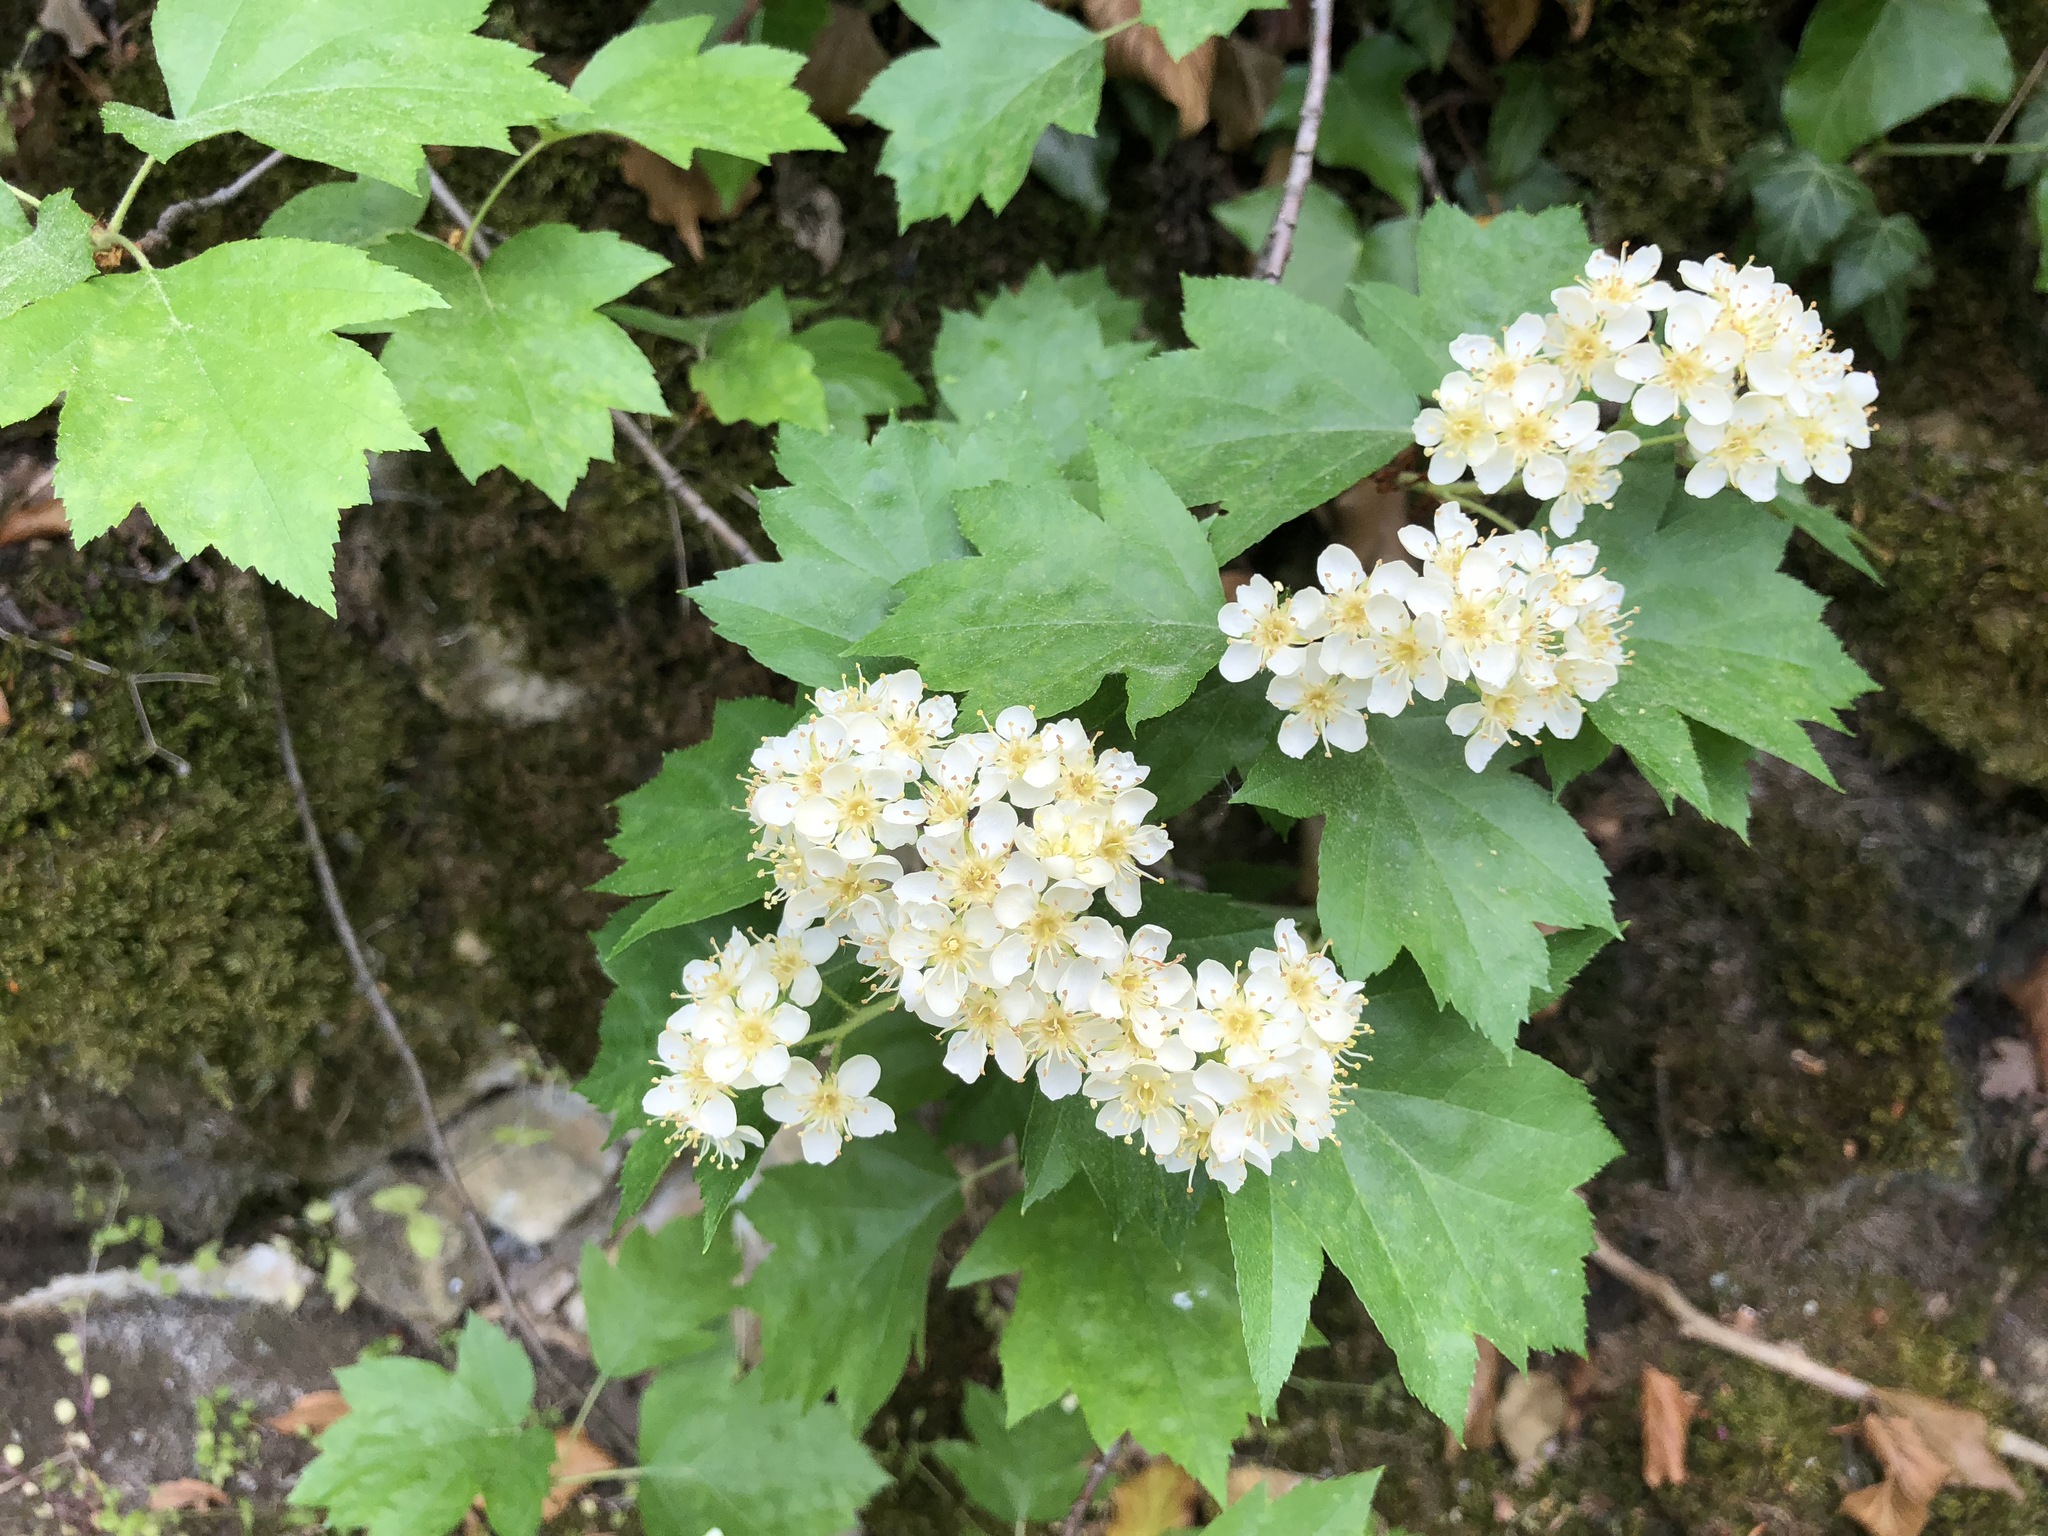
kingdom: Plantae
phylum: Tracheophyta
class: Magnoliopsida
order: Rosales
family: Rosaceae
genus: Torminalis
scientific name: Torminalis glaberrima
